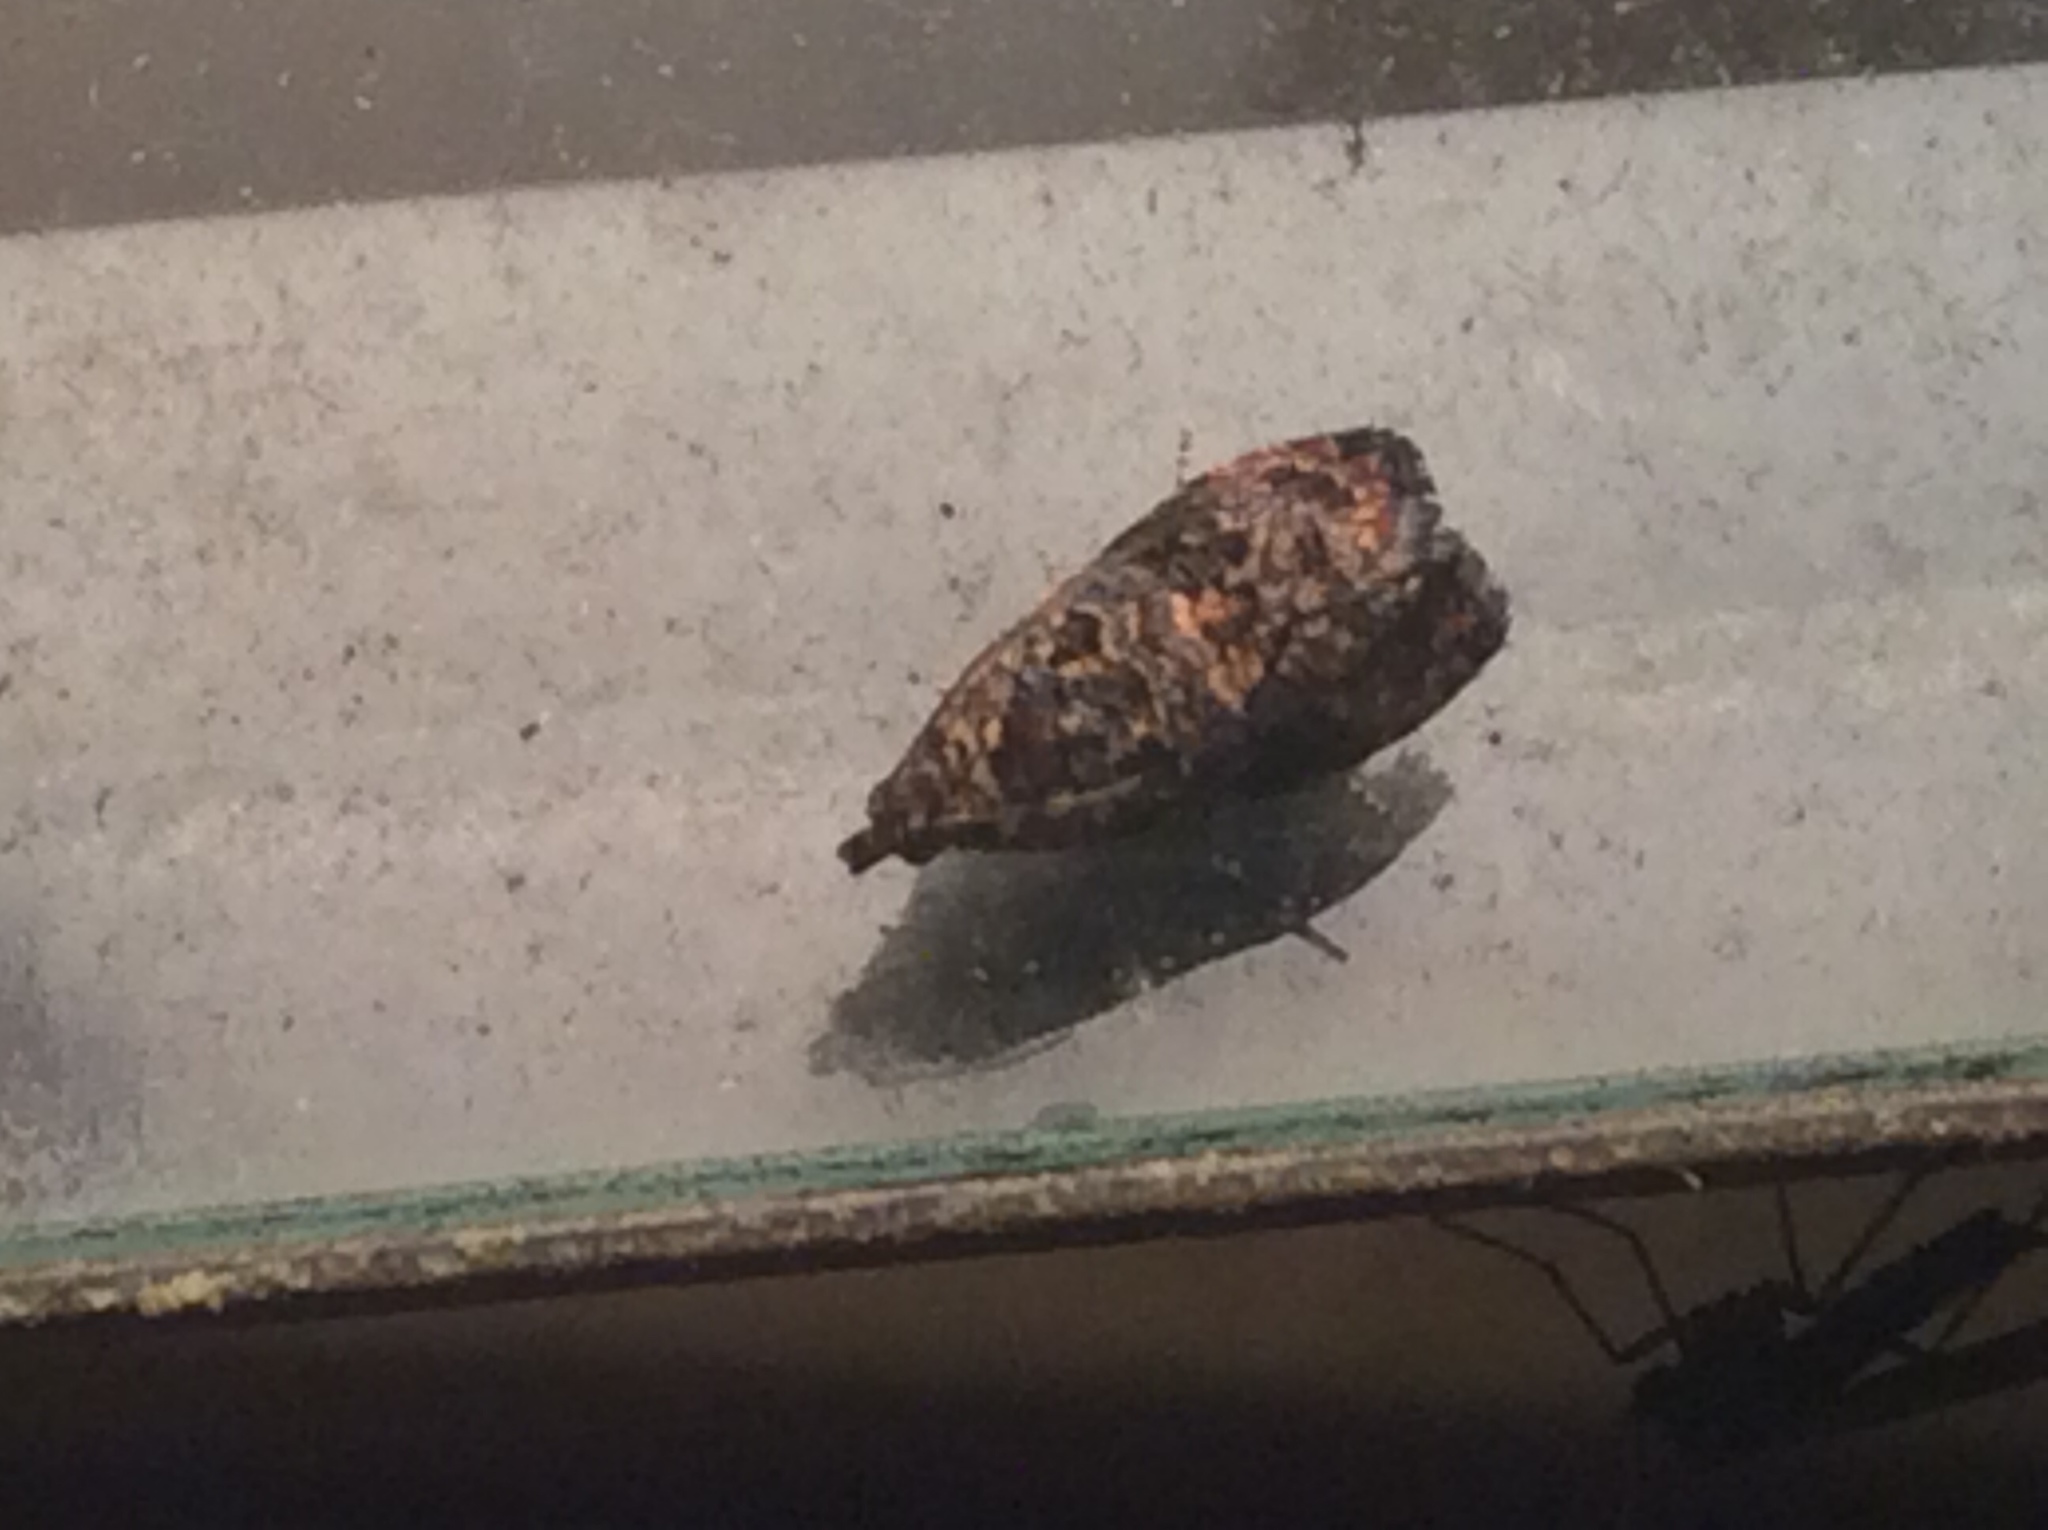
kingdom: Animalia
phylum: Arthropoda
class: Insecta
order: Lepidoptera
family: Tortricidae
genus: Endothenia
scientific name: Endothenia hebesana
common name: Verbena bud moth
